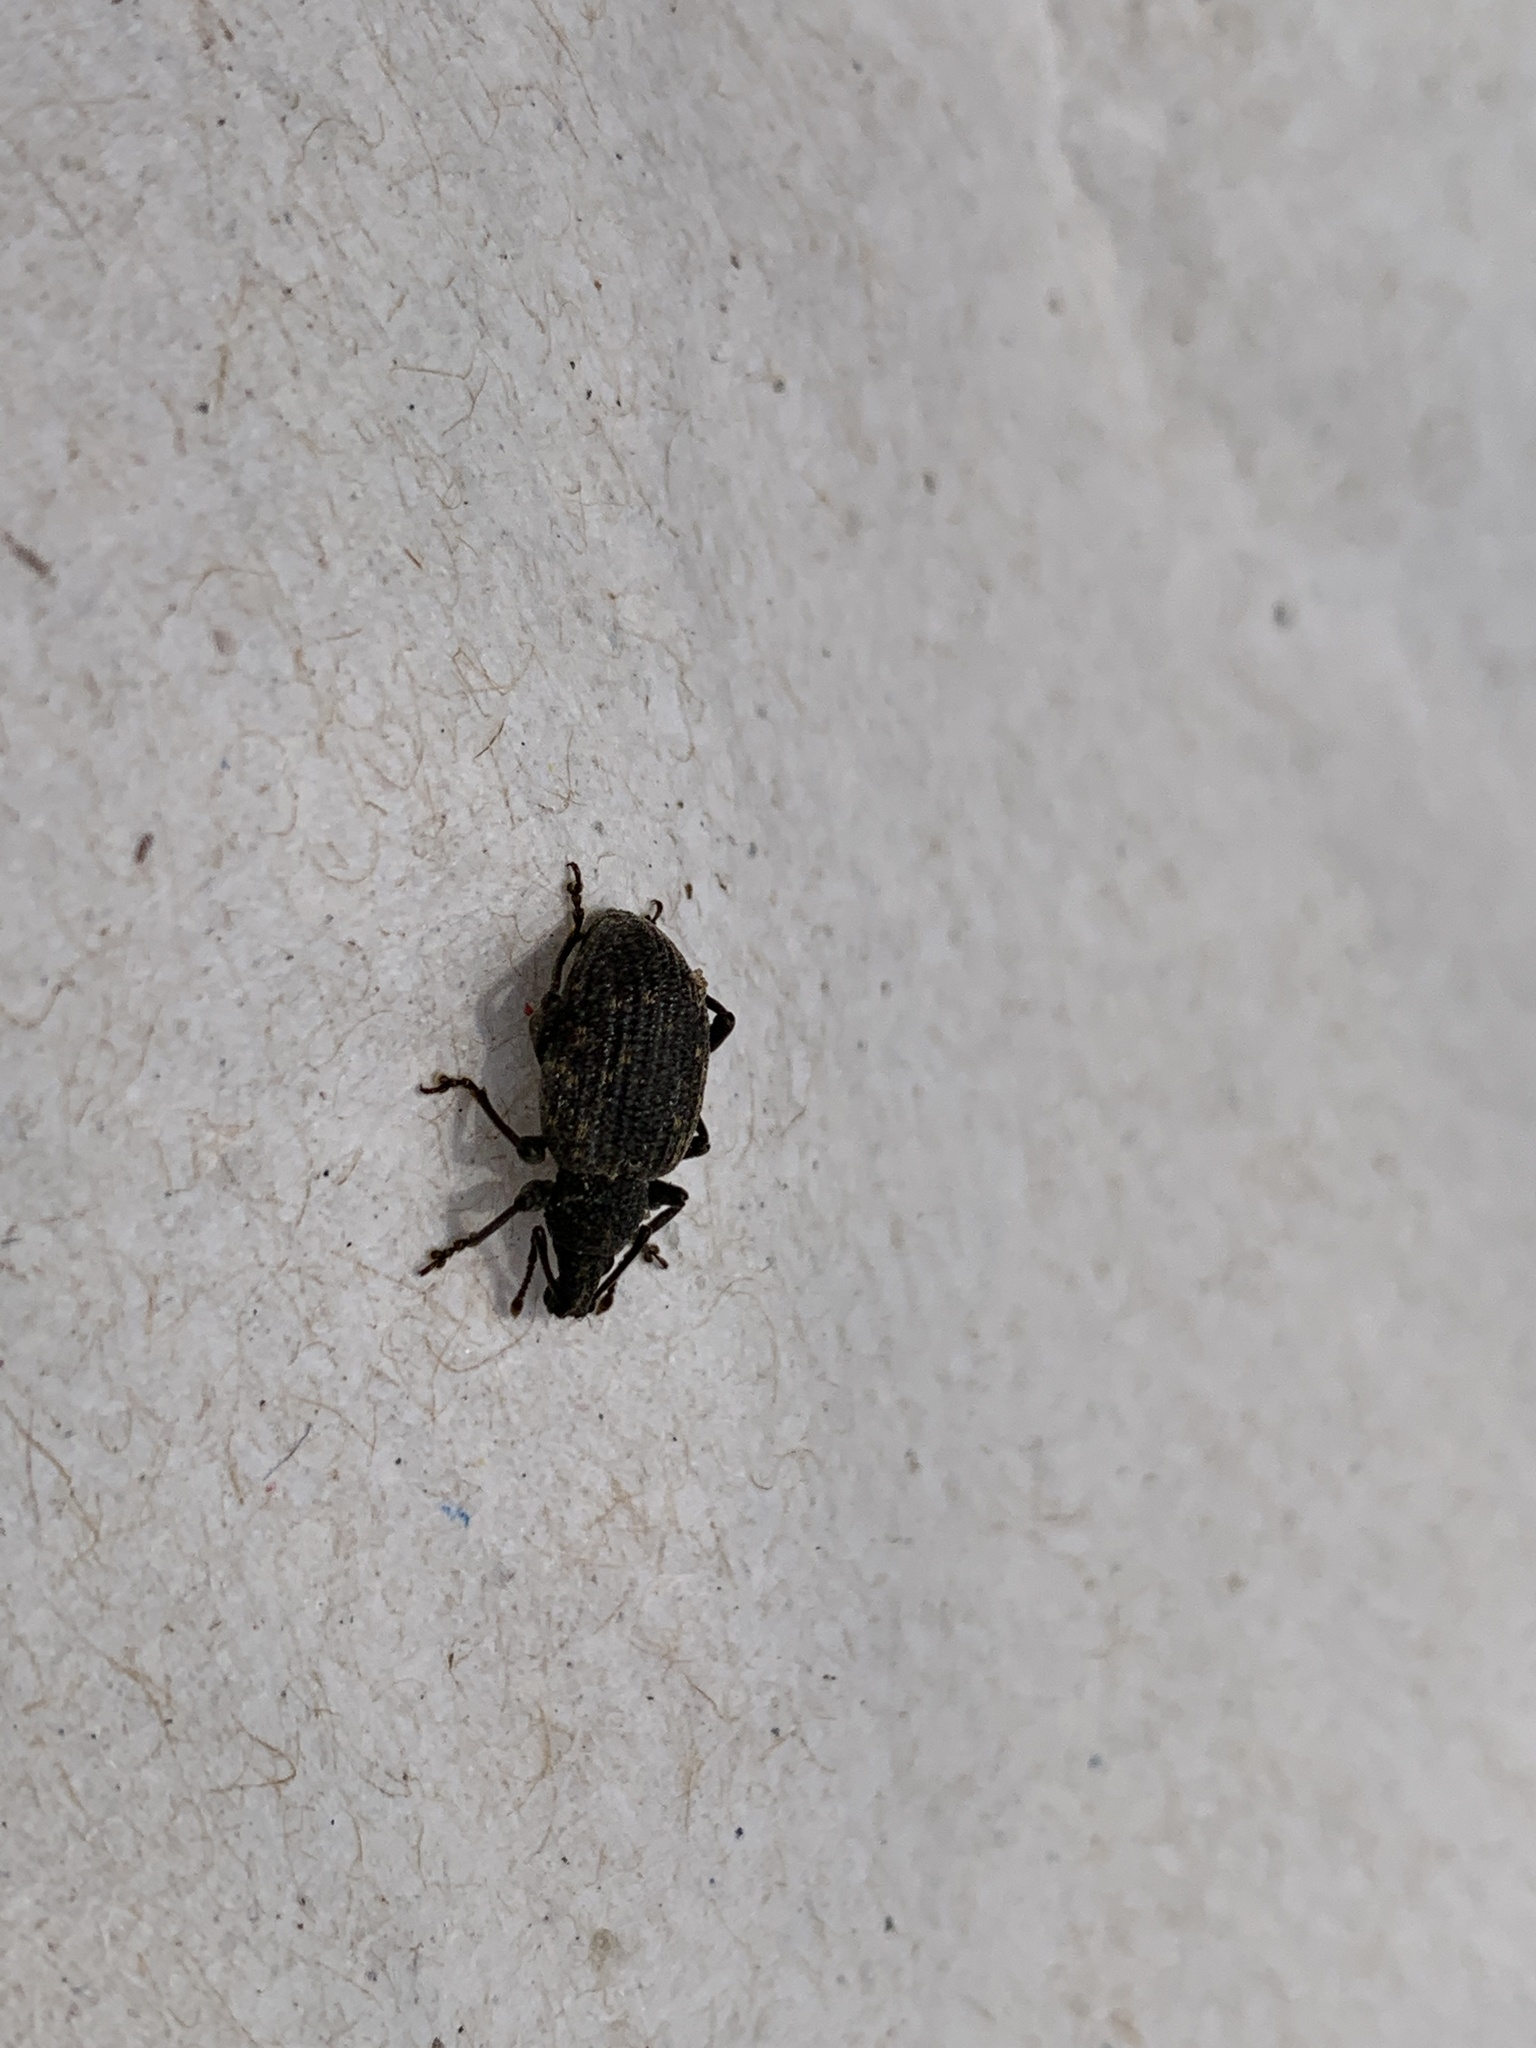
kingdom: Animalia
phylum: Arthropoda
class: Insecta
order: Coleoptera
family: Curculionidae
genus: Otiorhynchus
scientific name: Otiorhynchus sulcatus
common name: Black vine weevil
